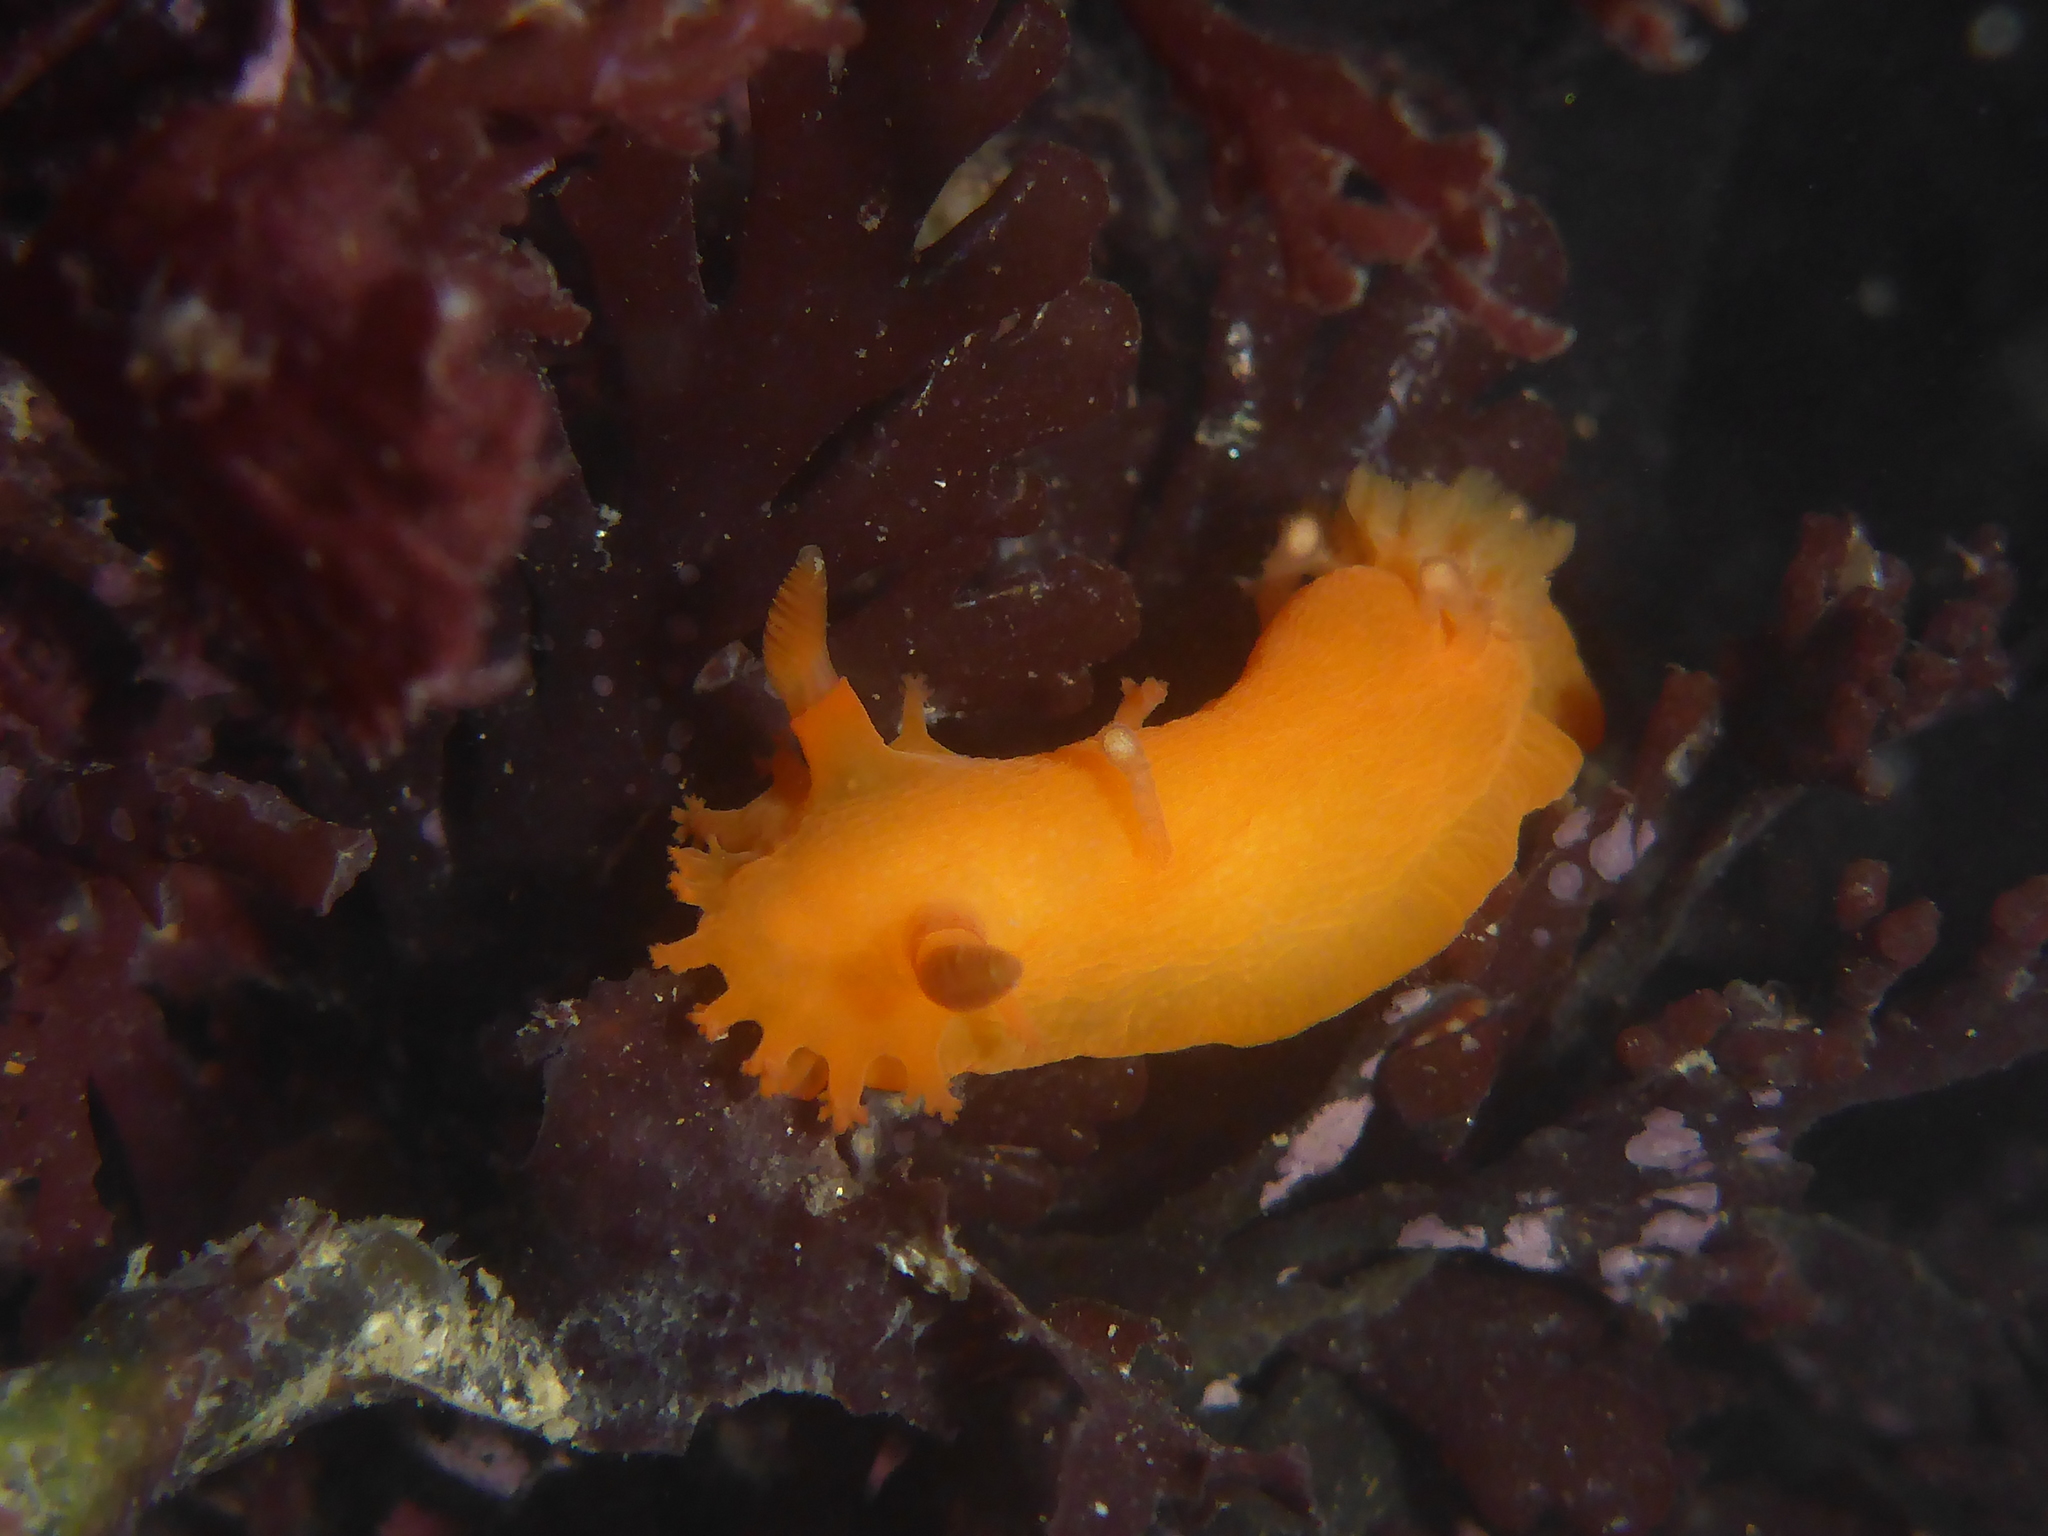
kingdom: Animalia
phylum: Mollusca
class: Gastropoda
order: Nudibranchia
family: Polyceridae
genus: Triopha
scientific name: Triopha maculata
